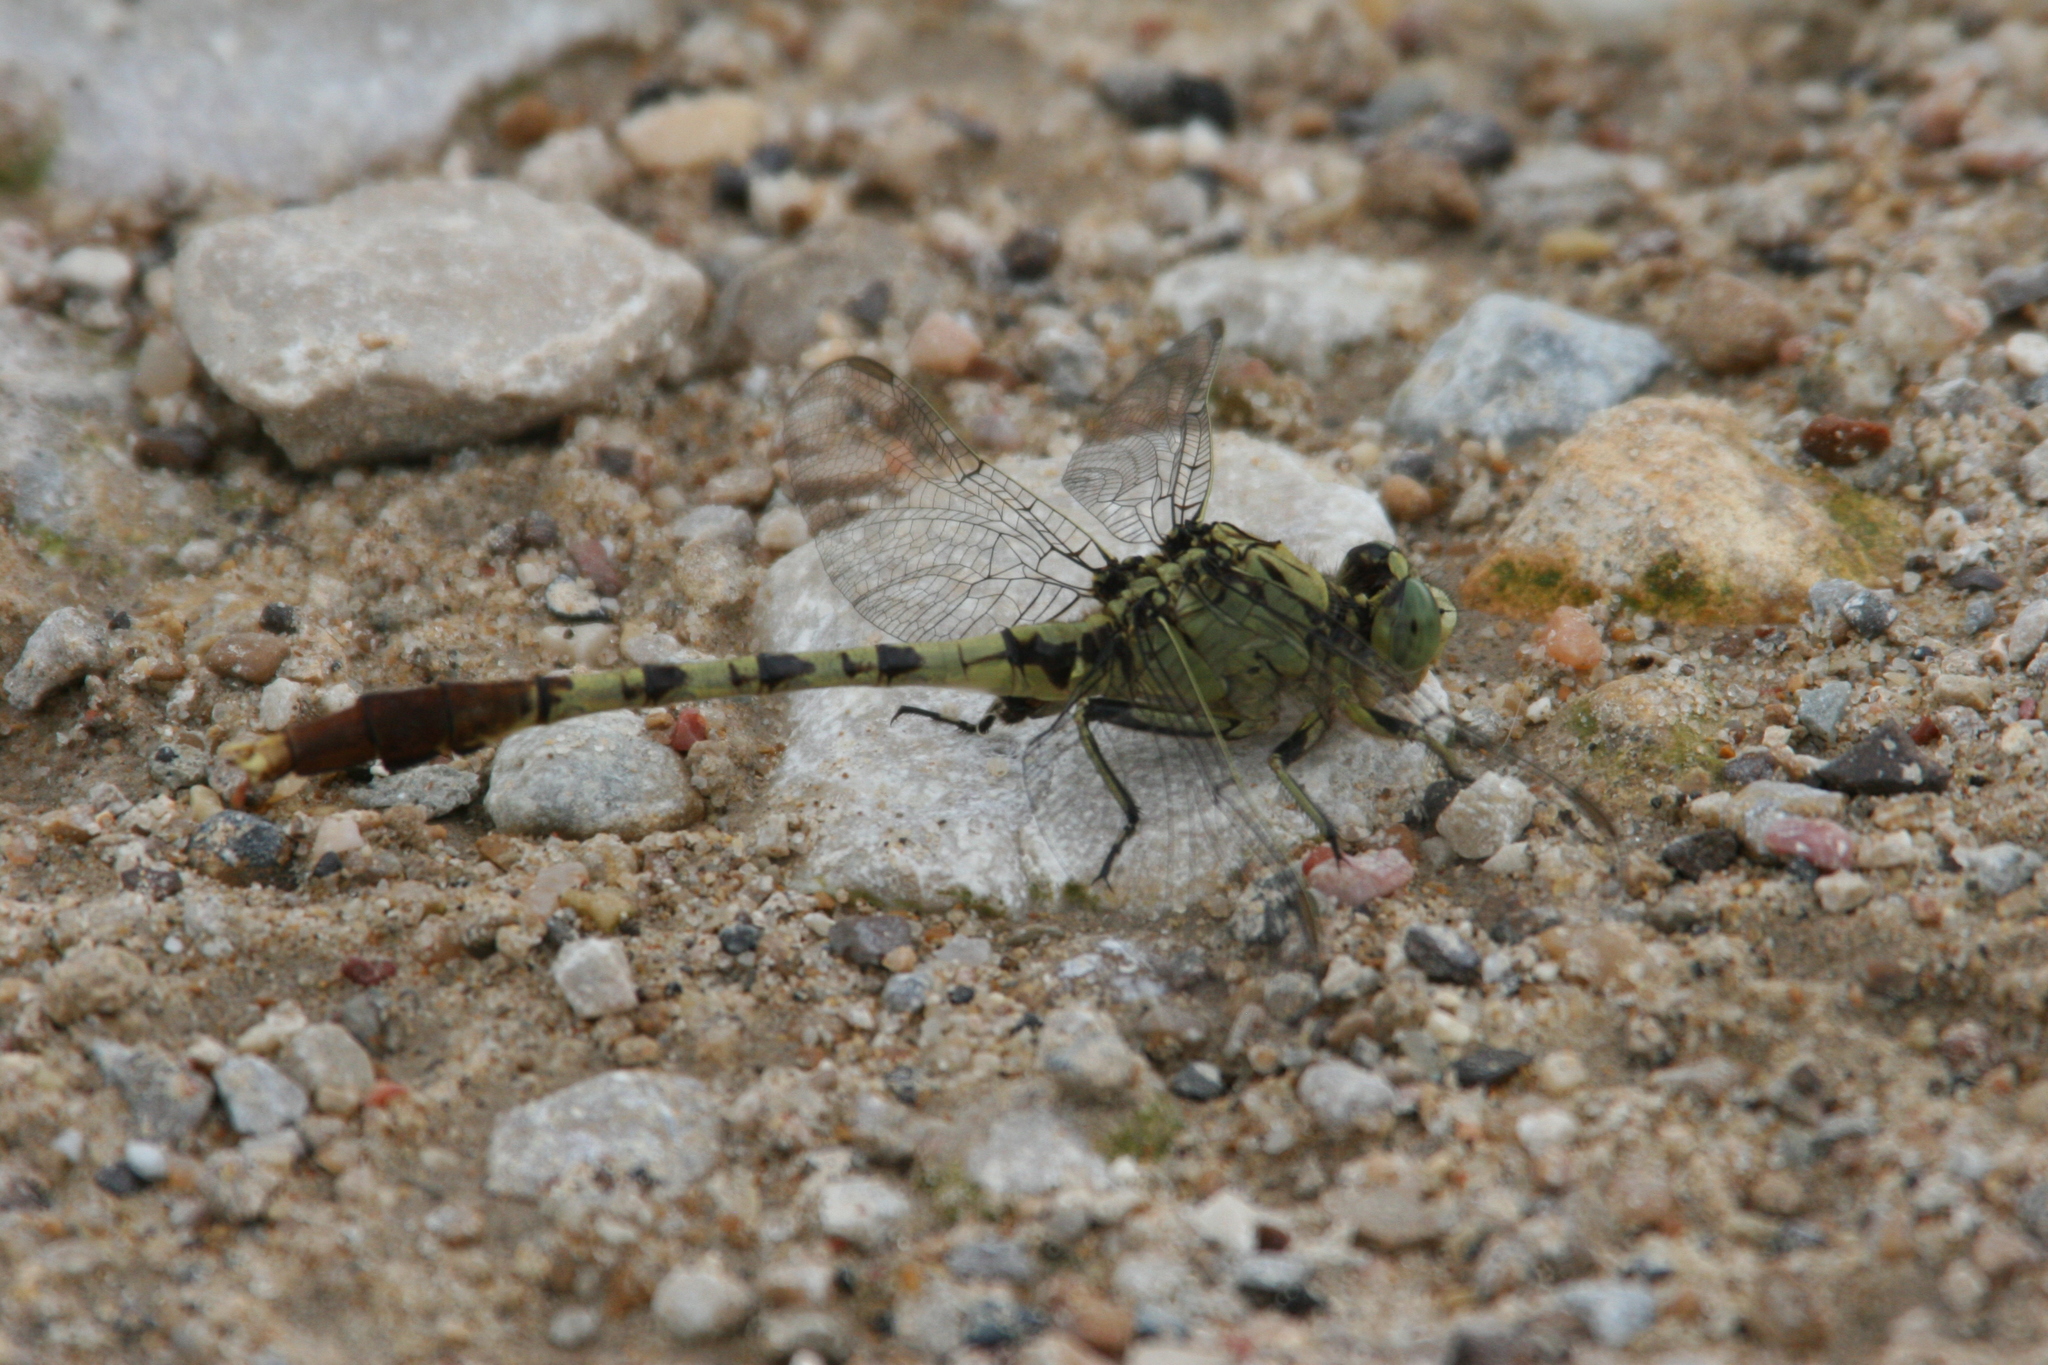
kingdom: Animalia
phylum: Arthropoda
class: Insecta
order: Odonata
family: Gomphidae
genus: Arigomphus
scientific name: Arigomphus submedianus
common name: Jade clubtail
